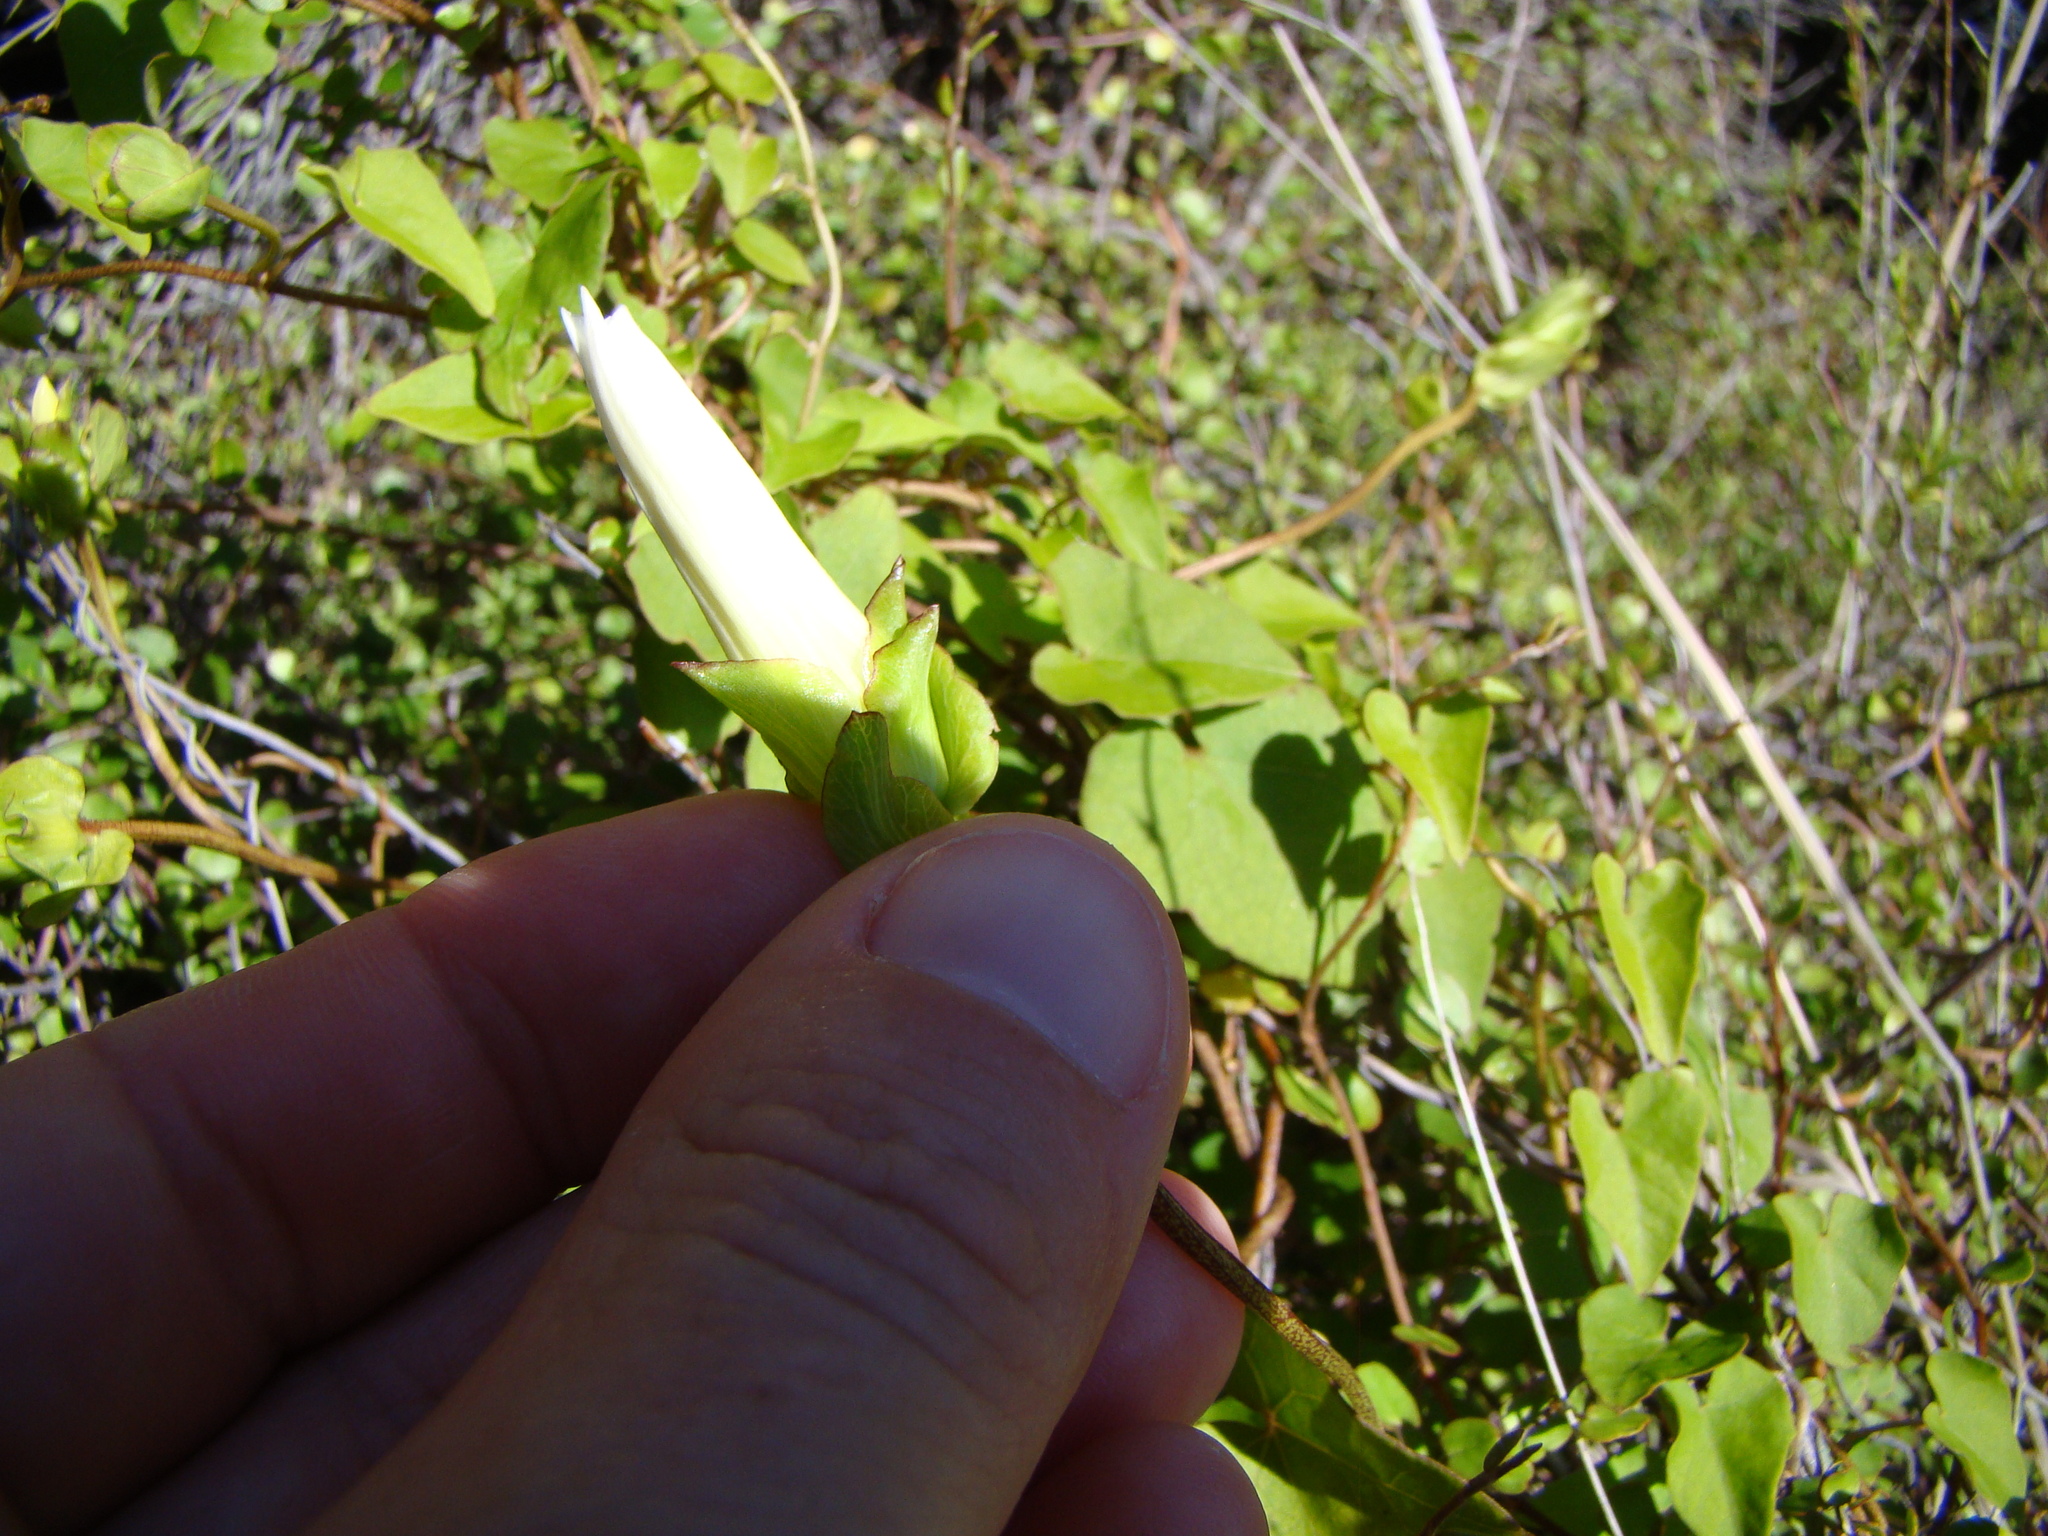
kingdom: Plantae
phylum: Tracheophyta
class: Magnoliopsida
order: Solanales
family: Convolvulaceae
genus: Calystegia
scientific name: Calystegia tuguriorum
